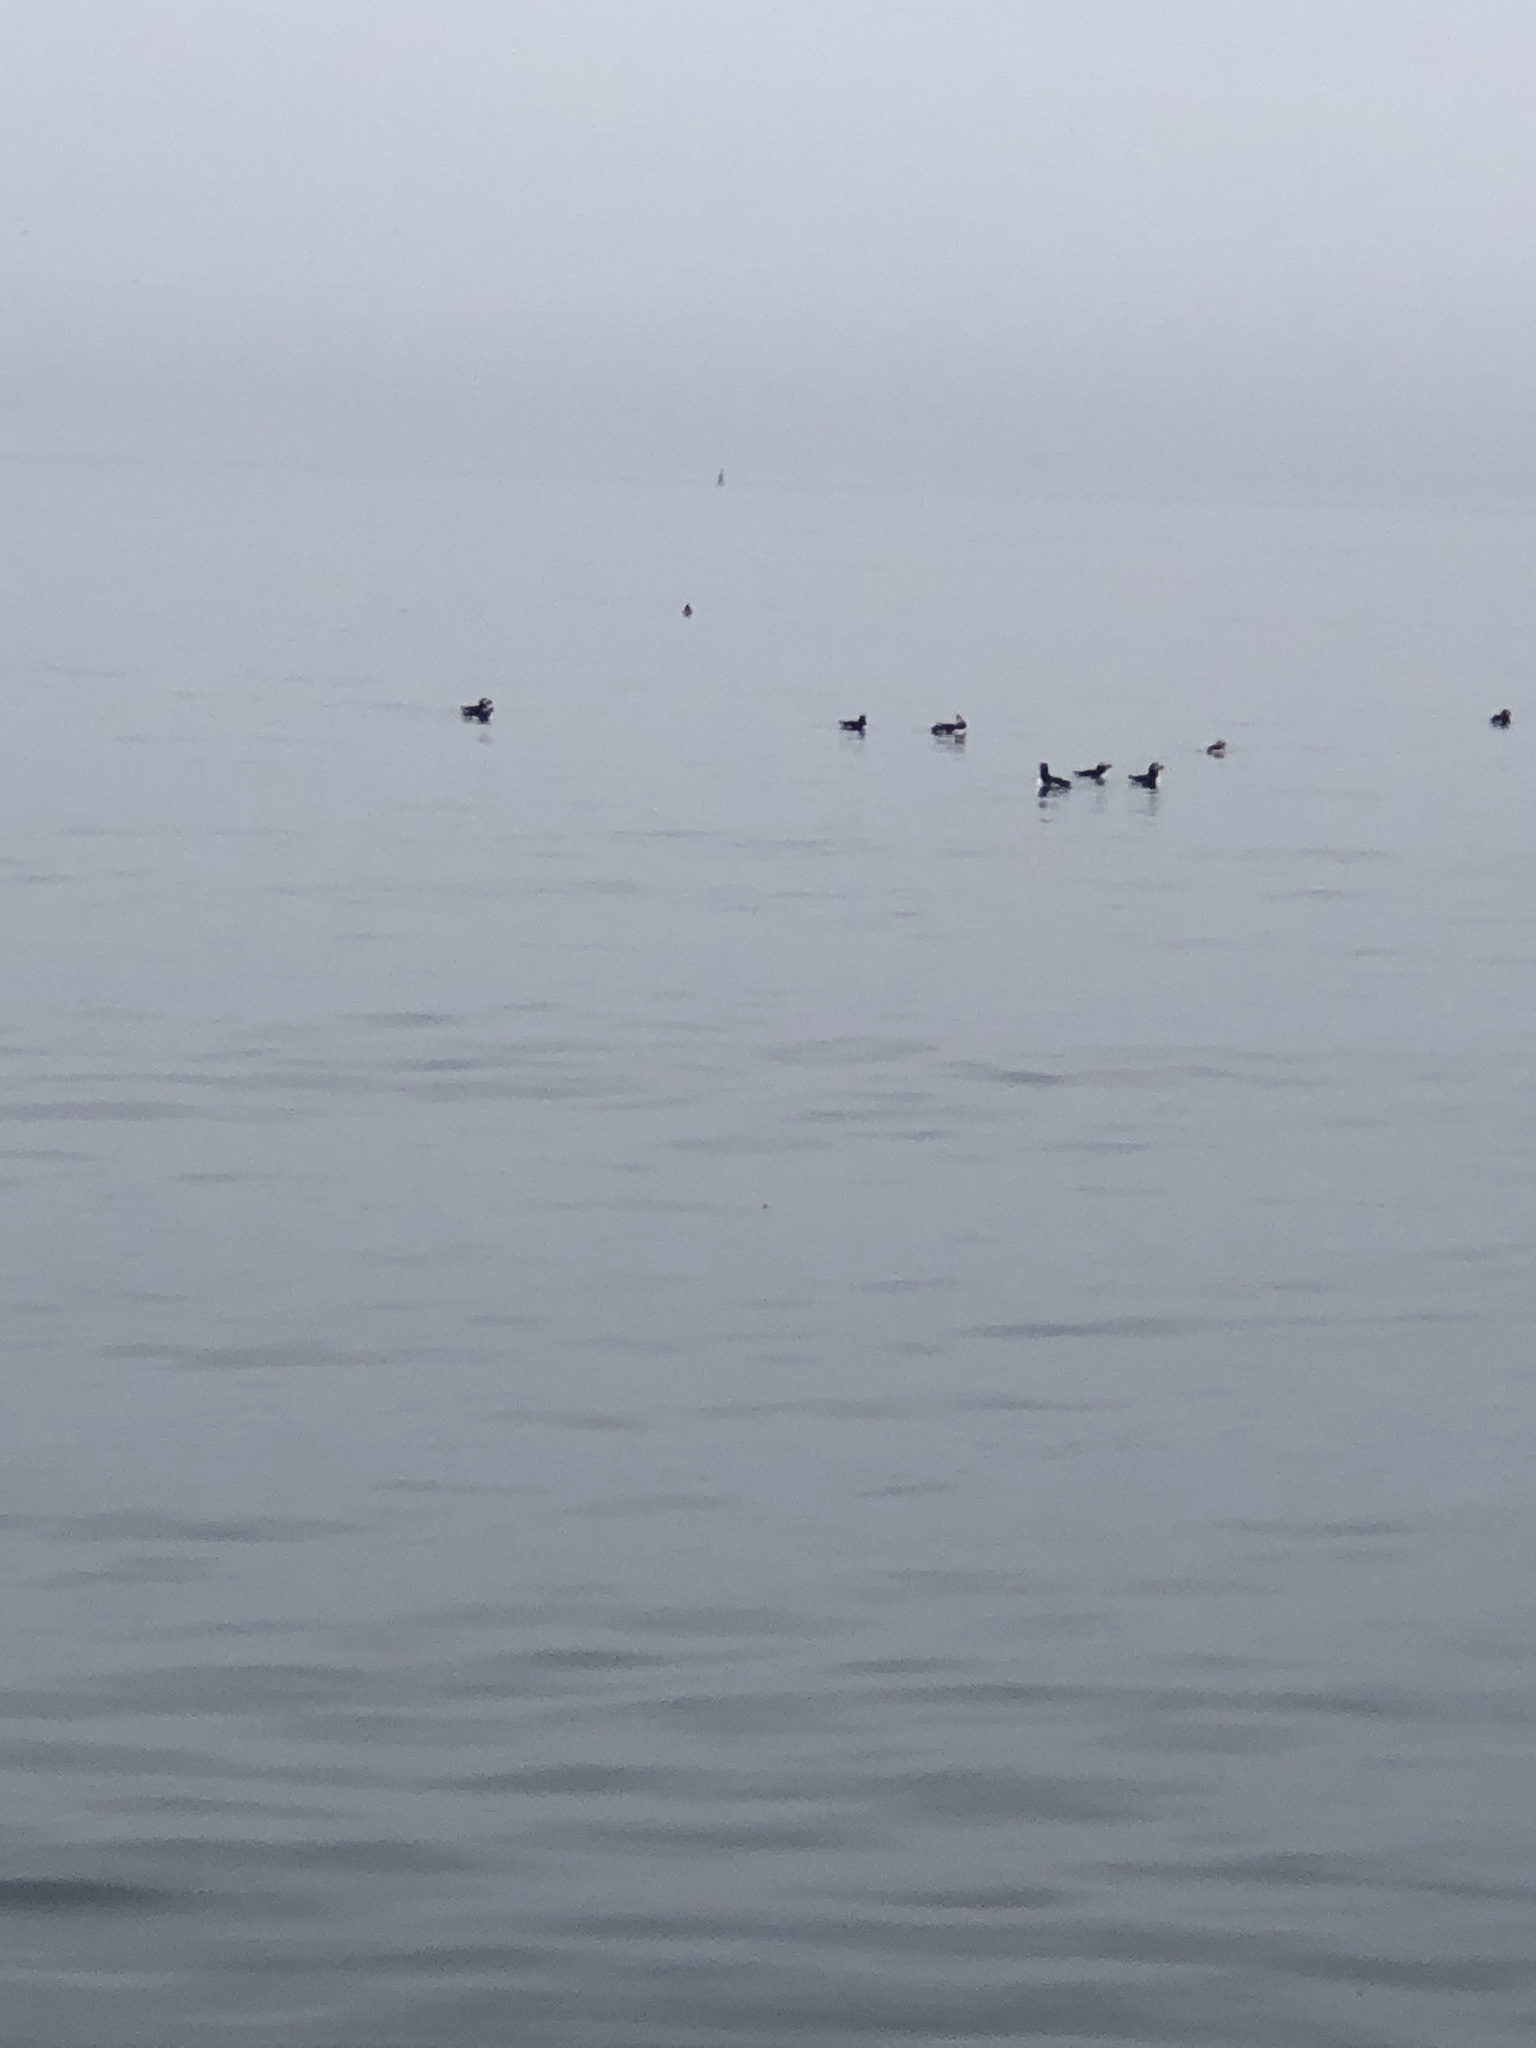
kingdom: Animalia
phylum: Chordata
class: Aves
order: Charadriiformes
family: Alcidae
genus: Fratercula
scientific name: Fratercula arctica
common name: Atlantic puffin
